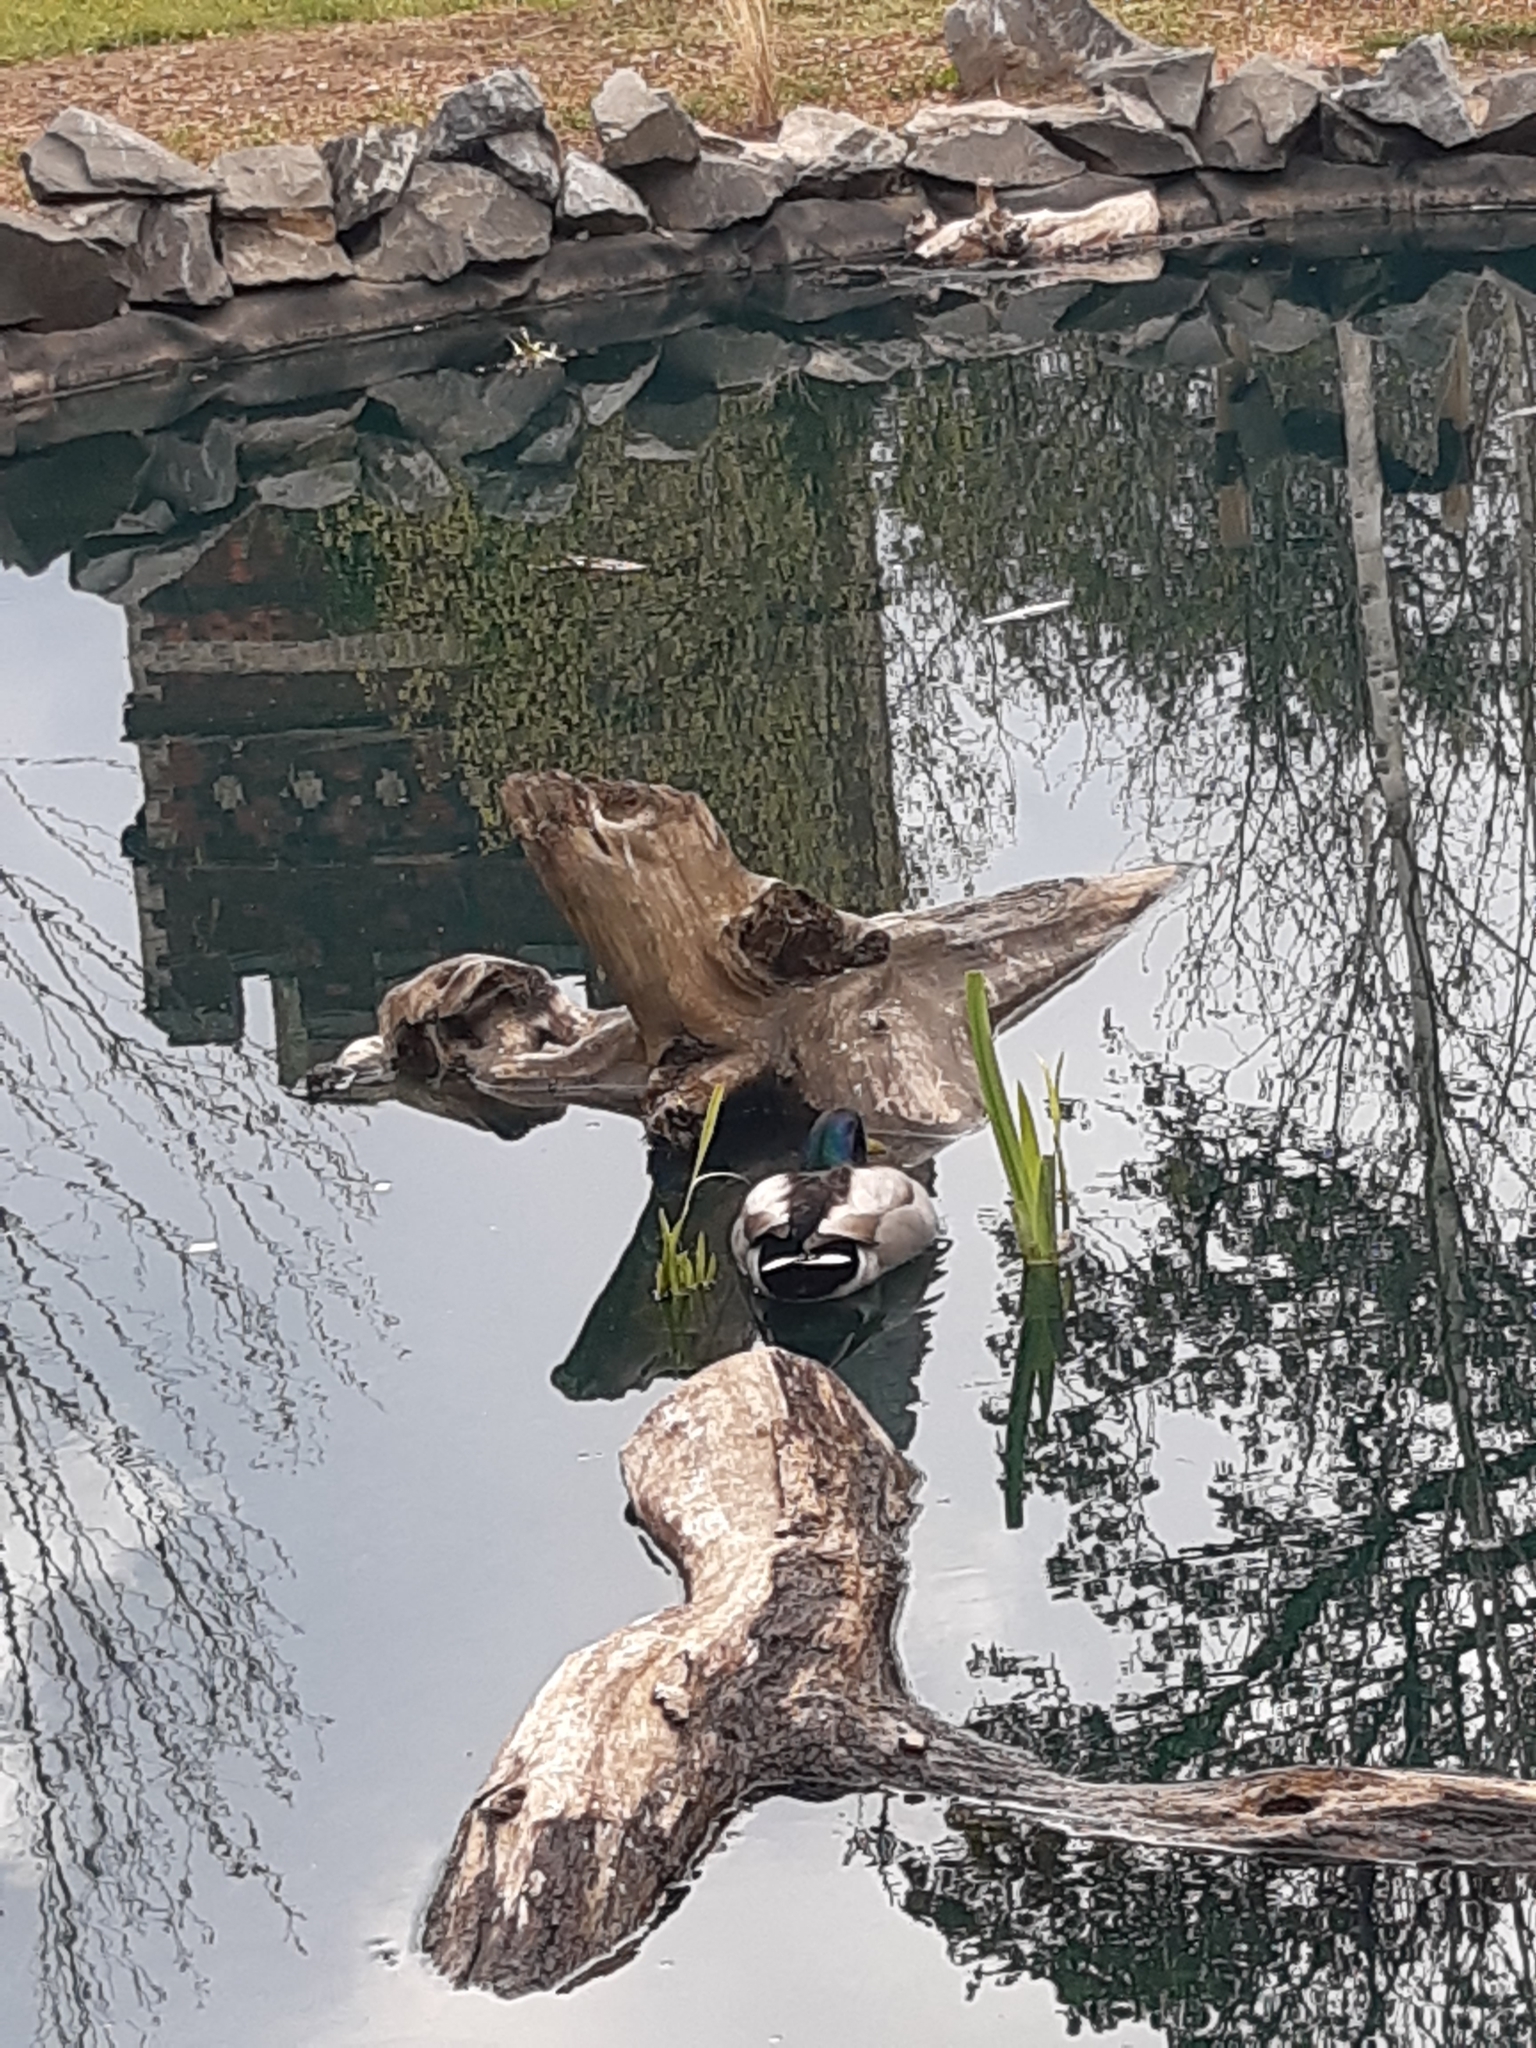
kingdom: Animalia
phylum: Chordata
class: Aves
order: Anseriformes
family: Anatidae
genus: Anas
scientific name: Anas platyrhynchos
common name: Mallard
